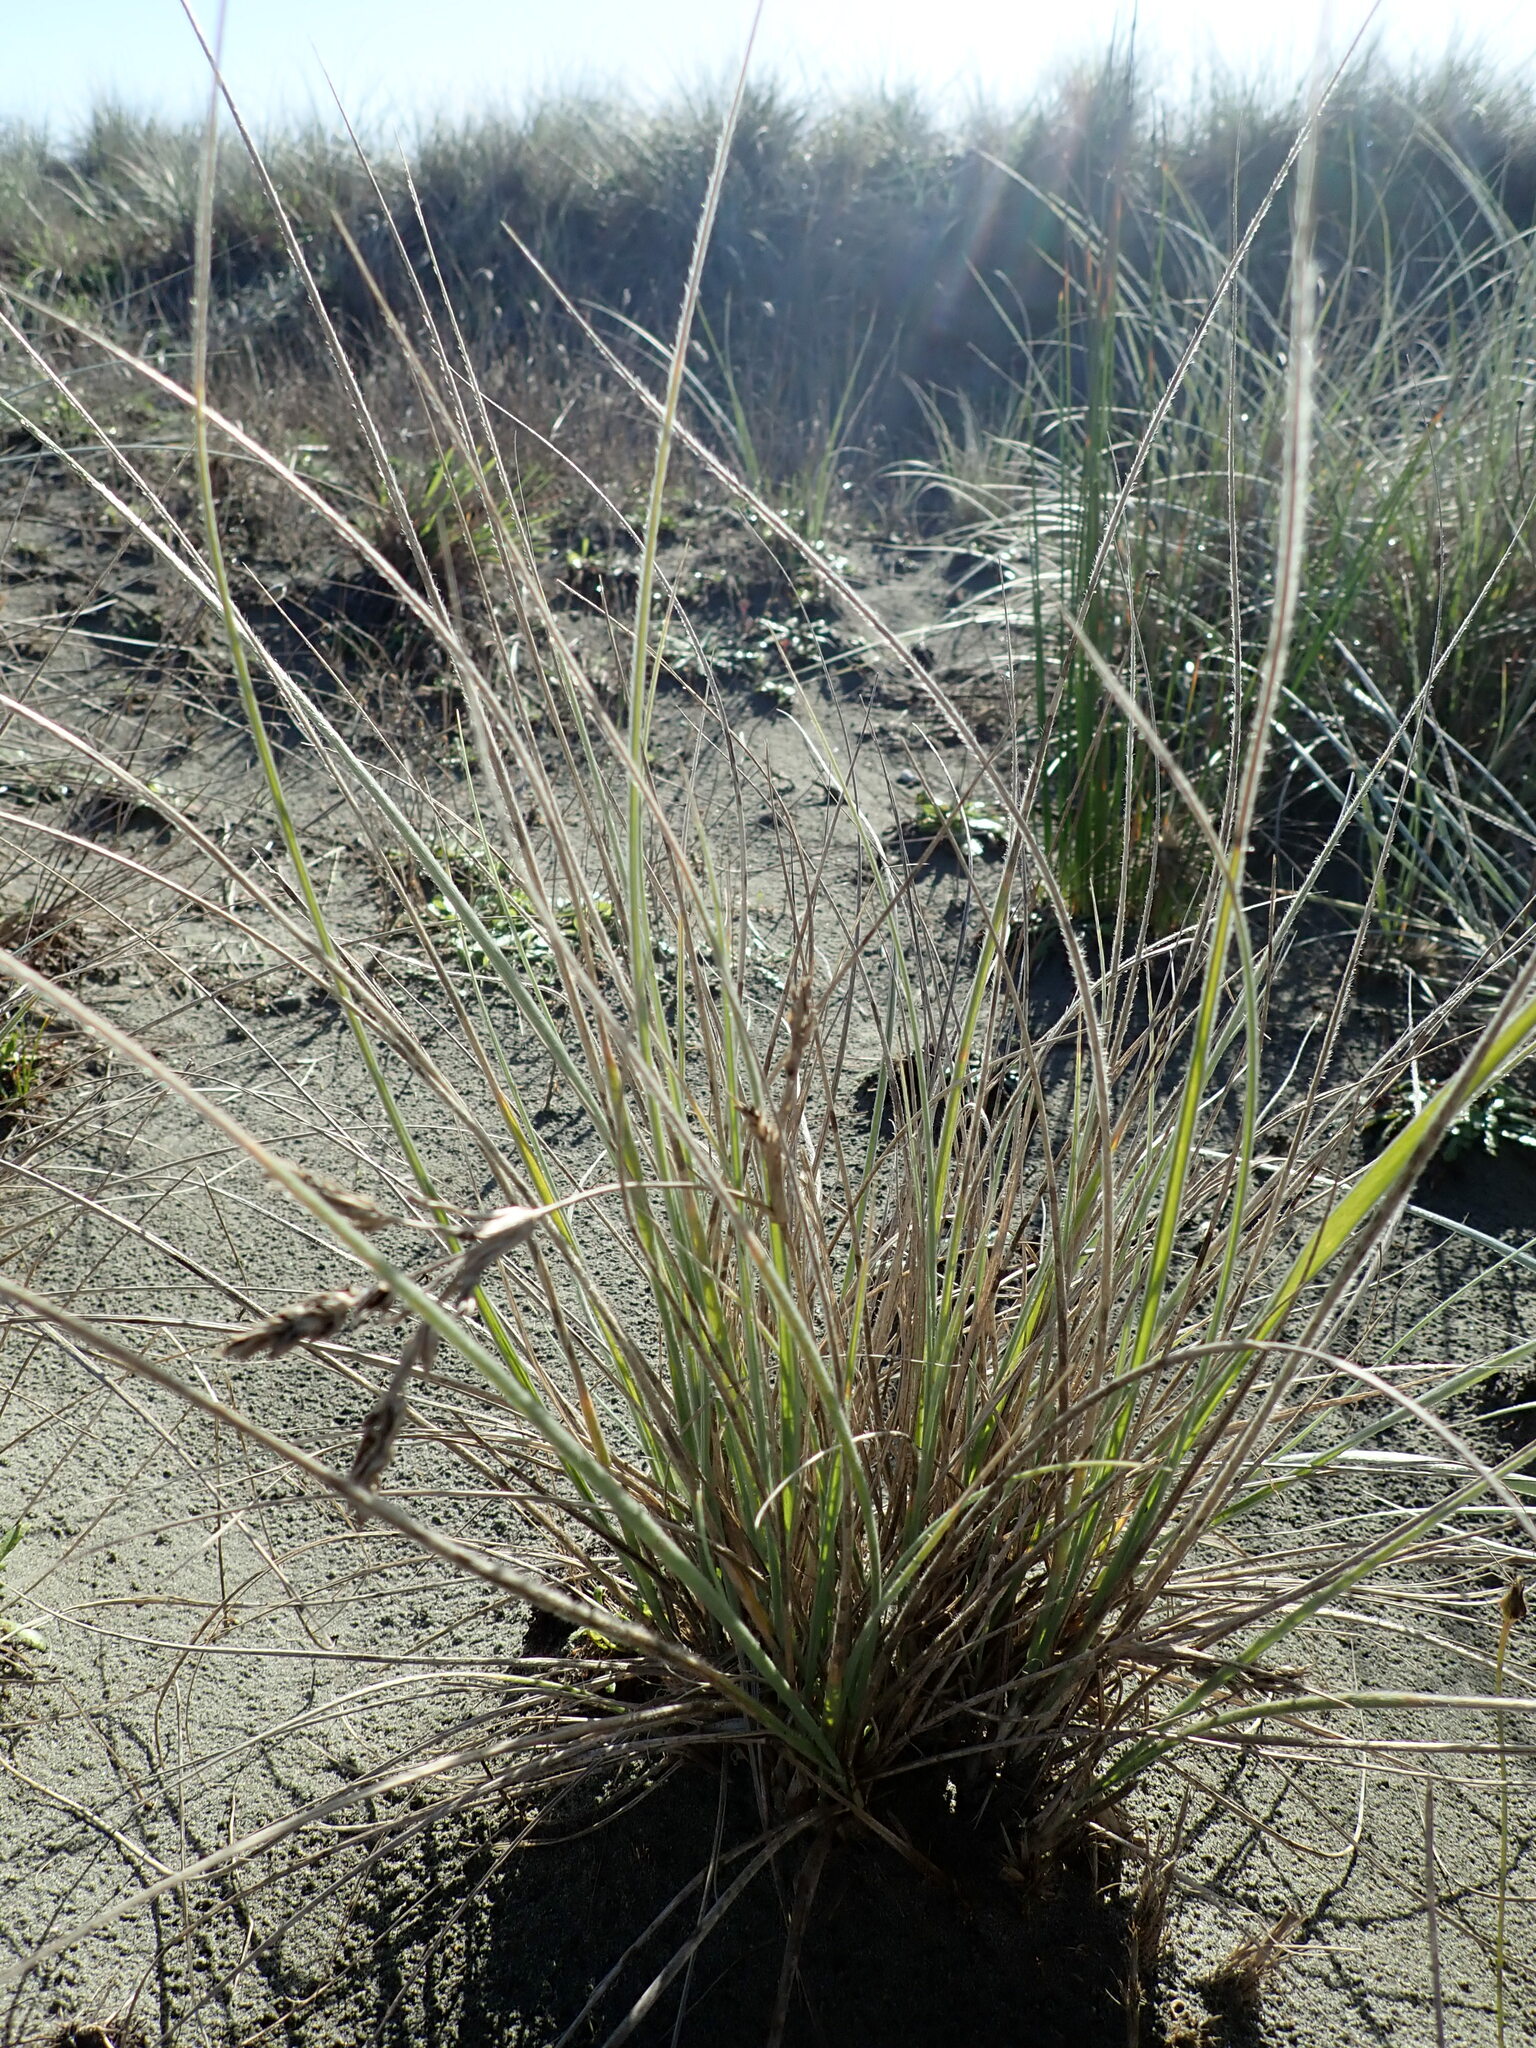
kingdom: Plantae
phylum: Tracheophyta
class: Liliopsida
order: Poales
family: Poaceae
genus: Spinifex
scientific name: Spinifex sericeus
